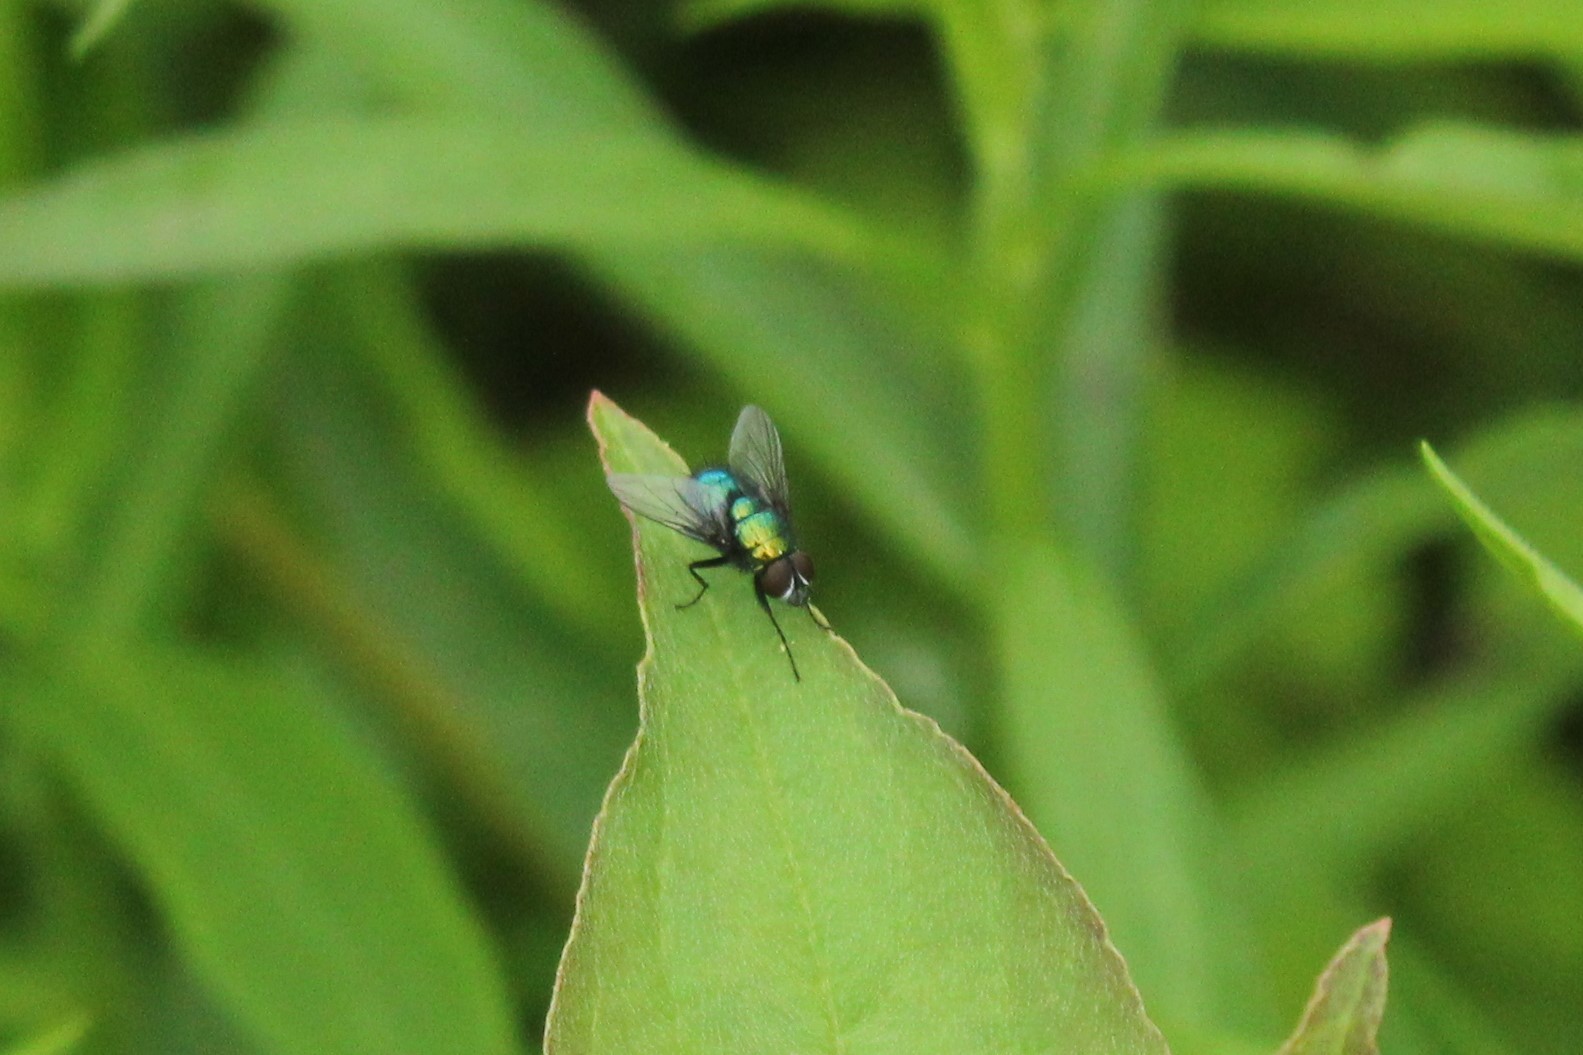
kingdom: Animalia
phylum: Arthropoda
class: Insecta
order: Diptera
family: Calliphoridae
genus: Lucilia
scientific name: Lucilia silvarum
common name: Marsh greenbottle
